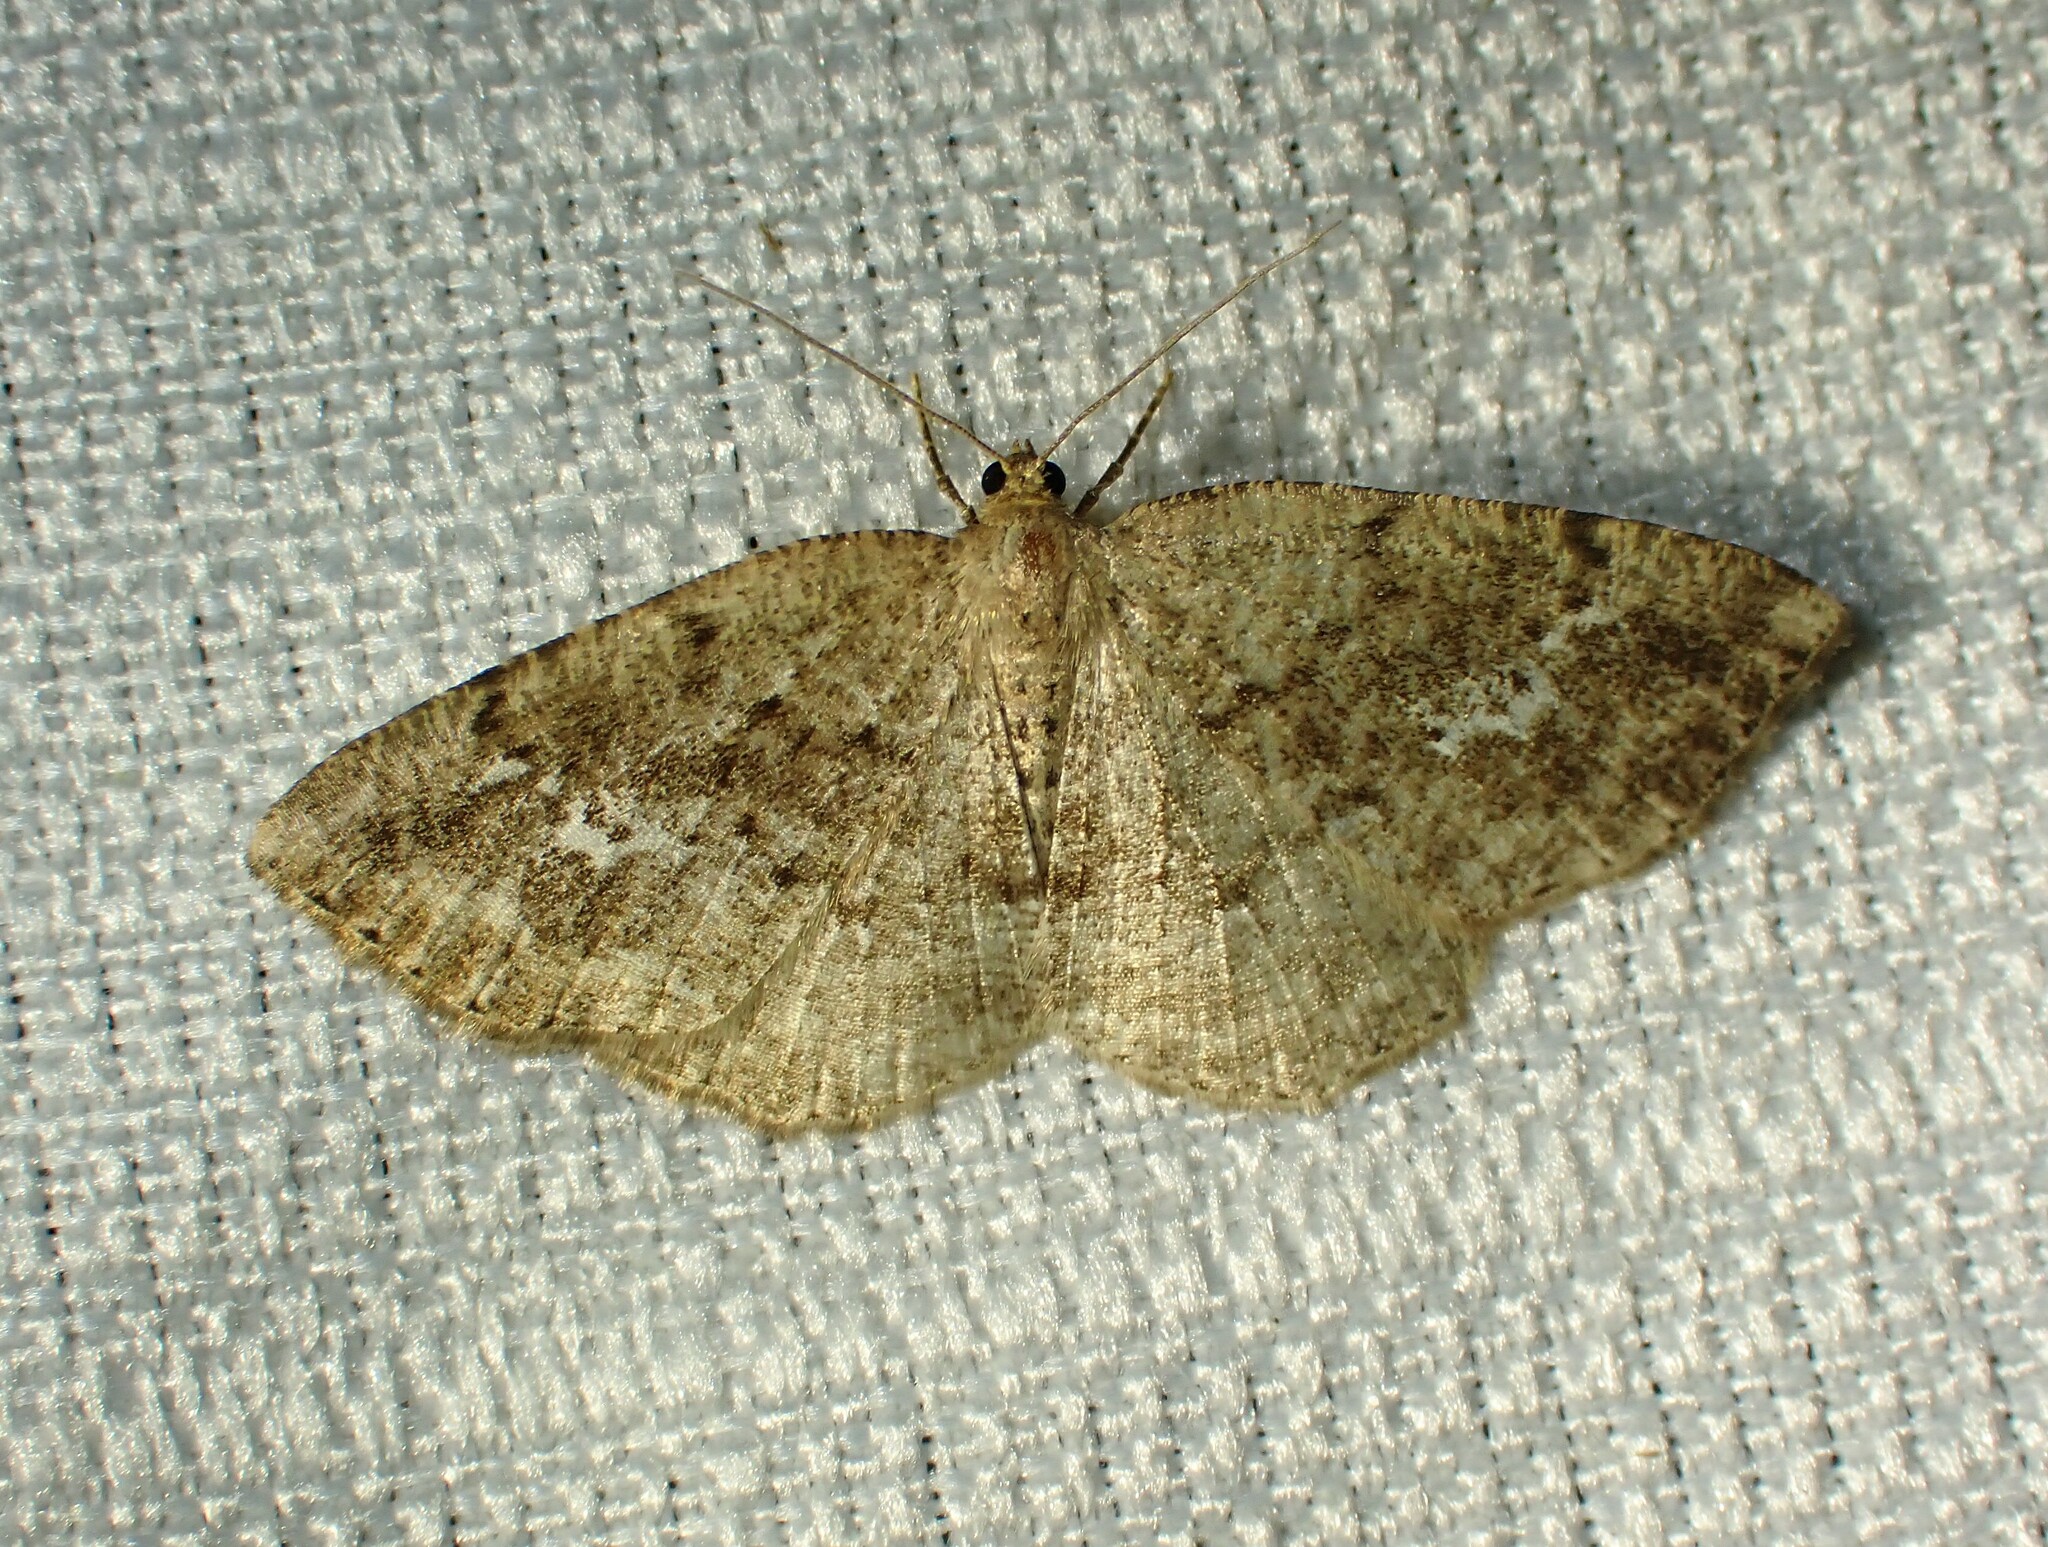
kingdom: Animalia
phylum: Arthropoda
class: Insecta
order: Lepidoptera
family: Geometridae
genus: Homochlodes
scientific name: Homochlodes fritillaria
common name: Pale homochlodes
